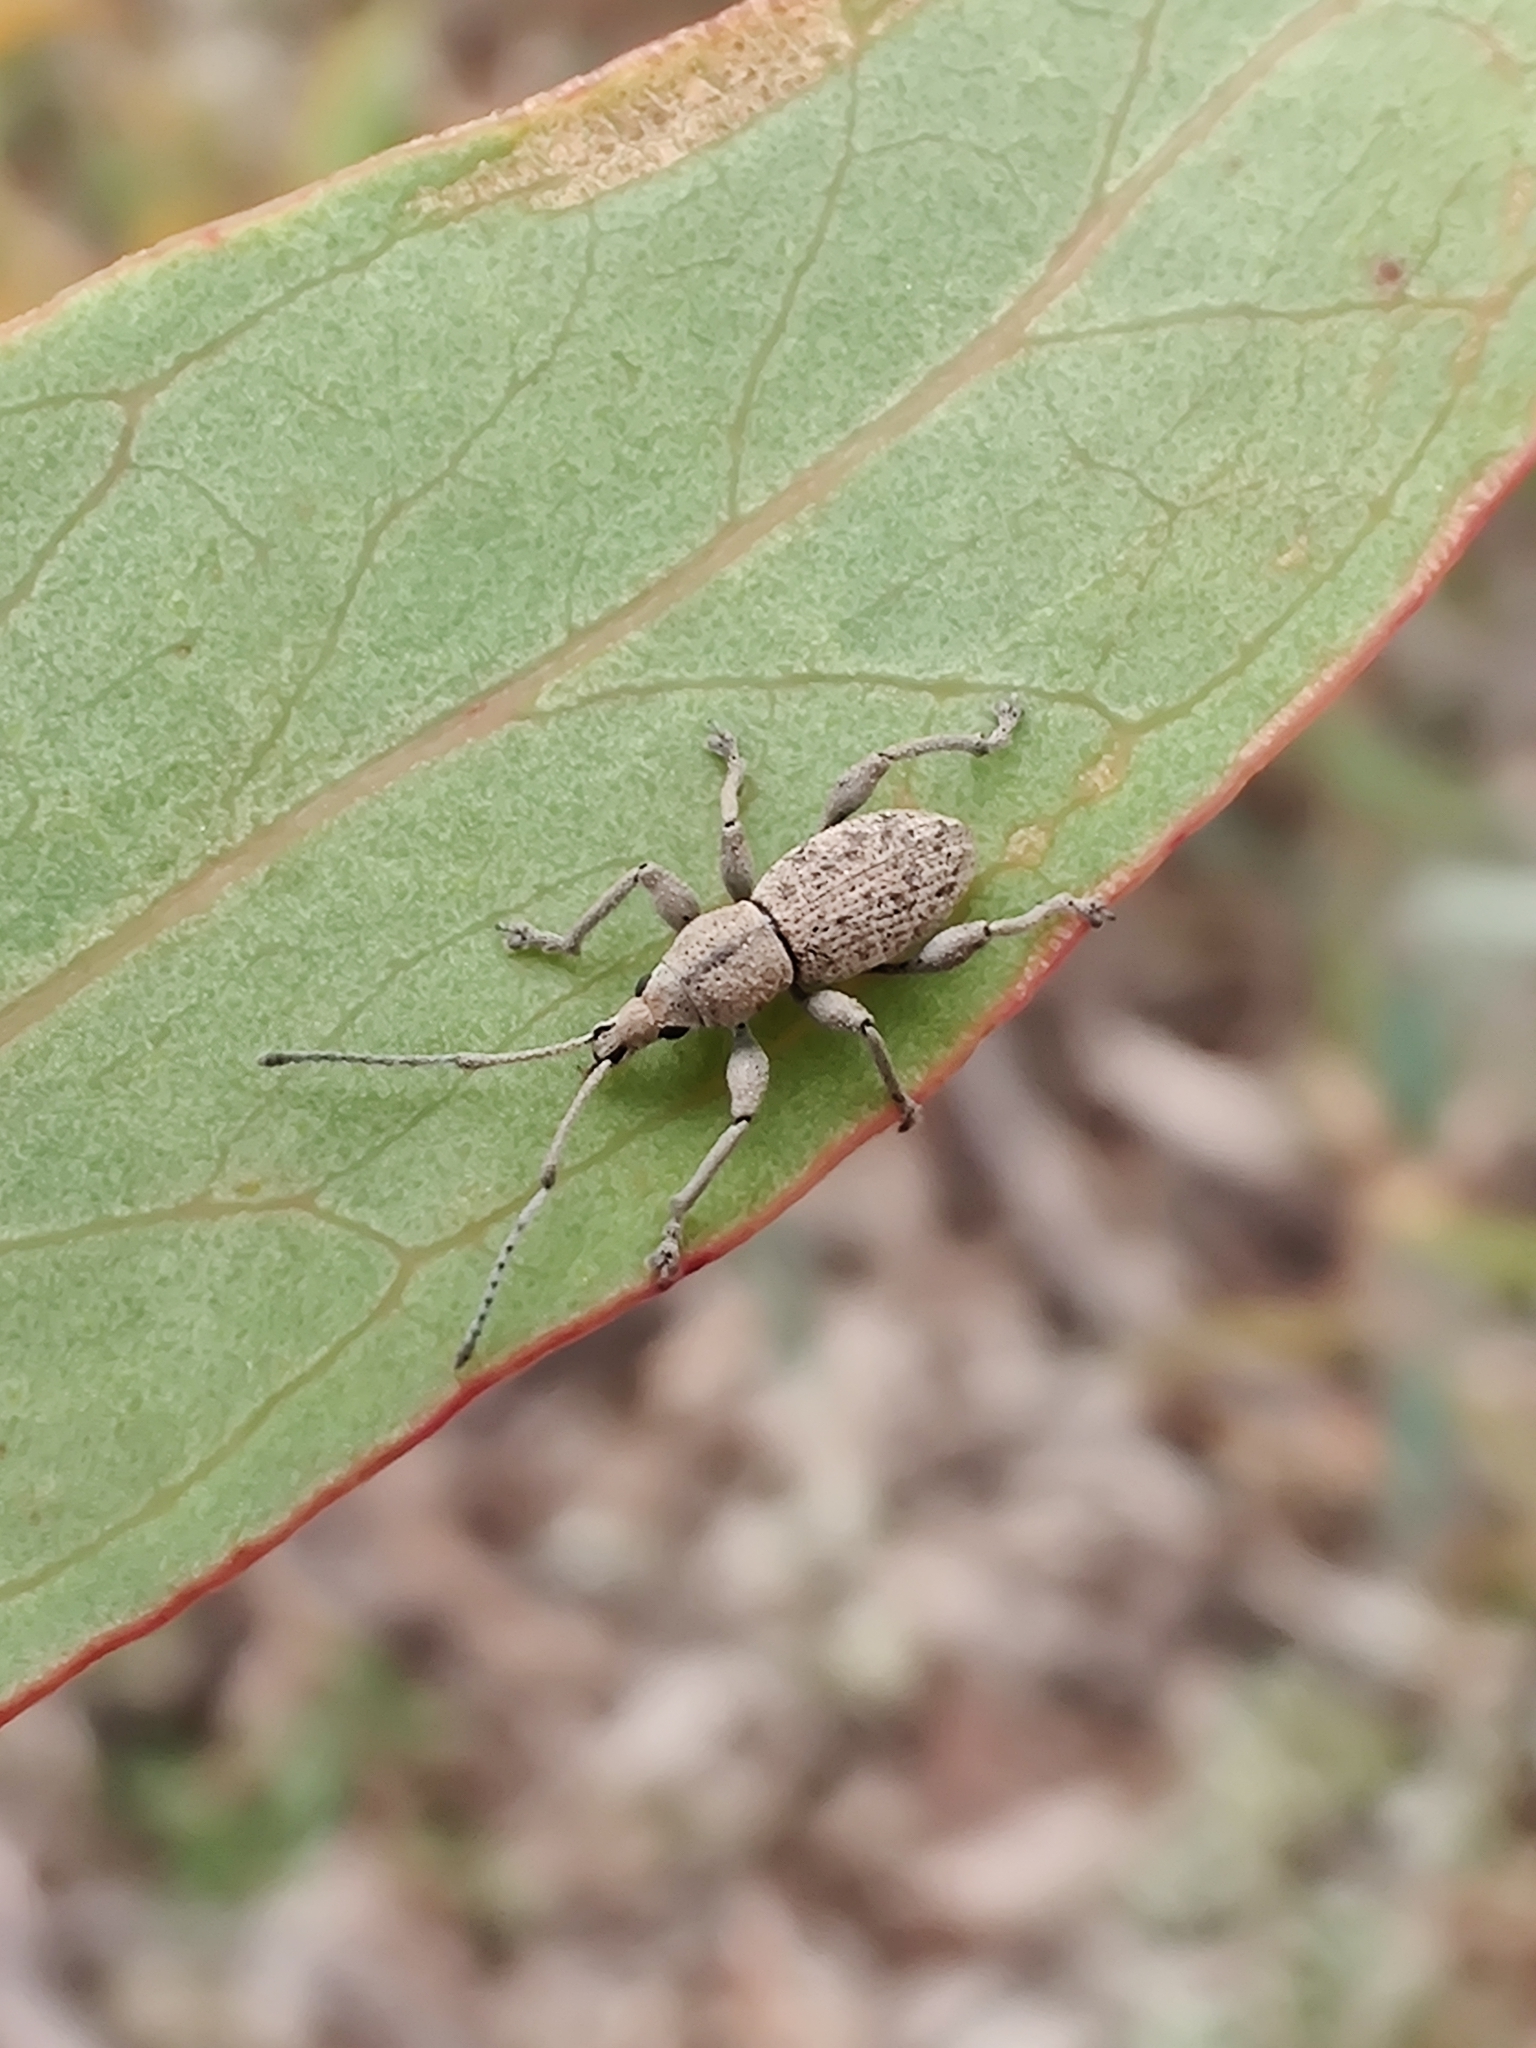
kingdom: Animalia
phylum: Arthropoda
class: Insecta
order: Coleoptera
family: Curculionidae
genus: Merimnetes
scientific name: Merimnetes oblongus
